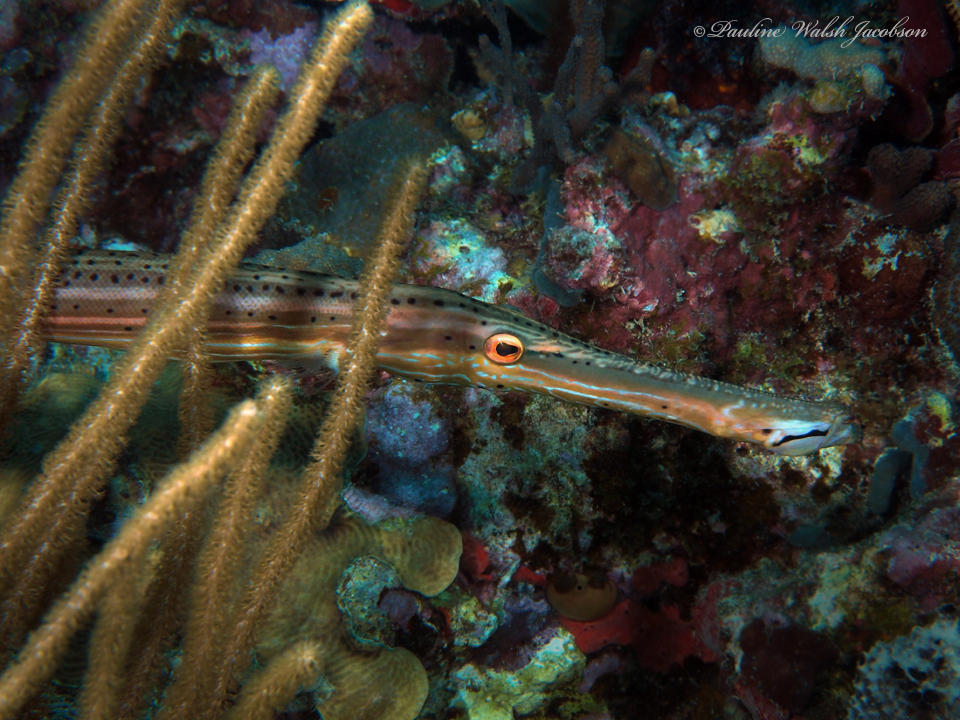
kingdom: Animalia
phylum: Chordata
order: Syngnathiformes
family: Aulostomidae
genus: Aulostomus
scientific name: Aulostomus maculatus
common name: West atlantic trumpetfish
